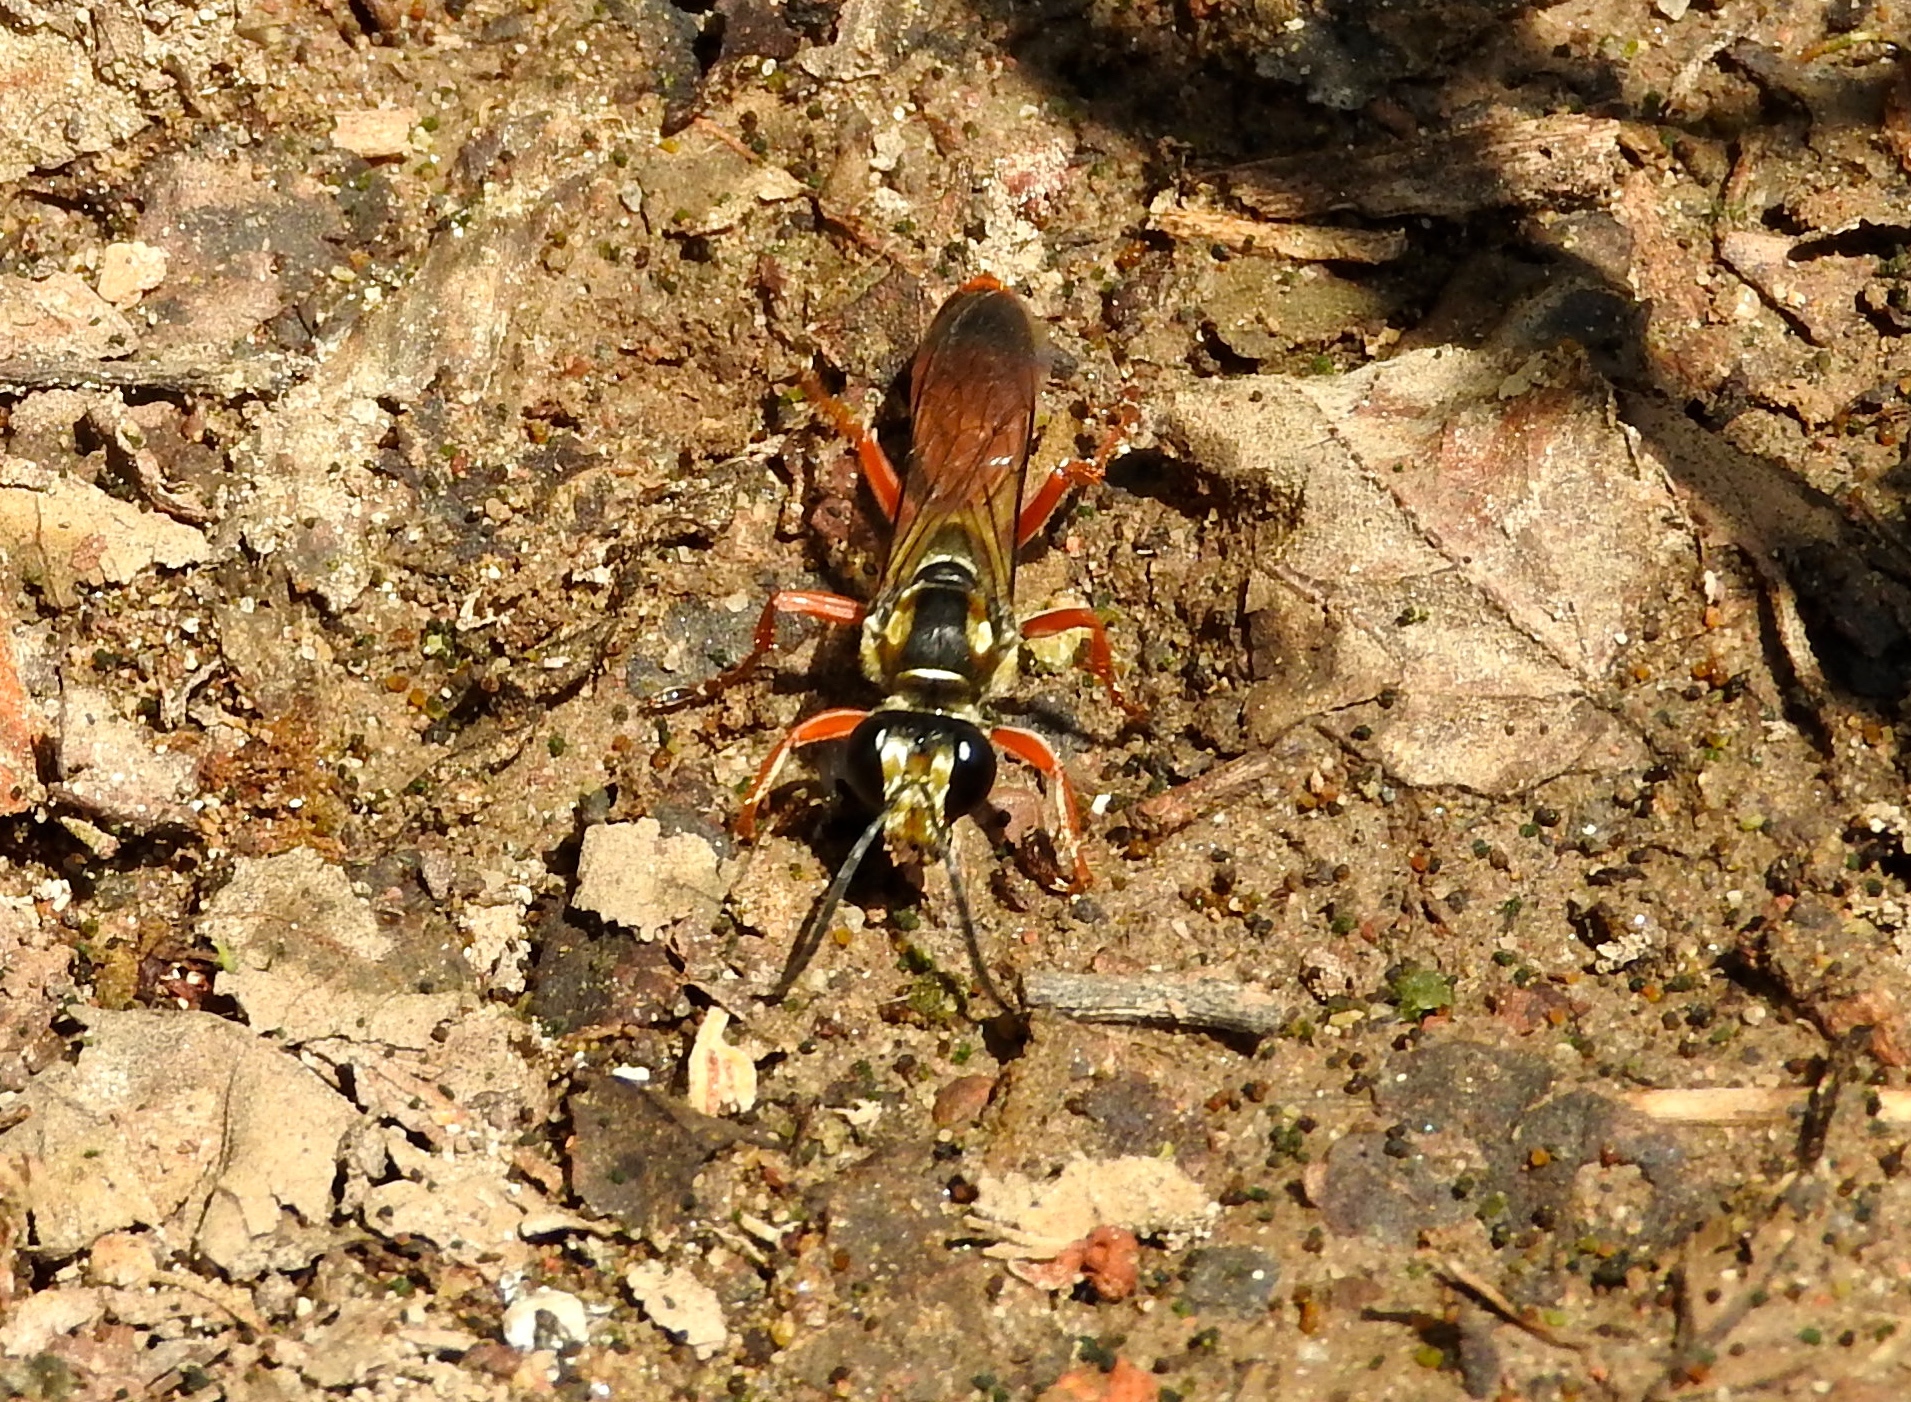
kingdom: Animalia
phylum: Arthropoda
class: Insecta
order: Hymenoptera
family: Sphecidae
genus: Sphex
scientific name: Sphex dorsalis
